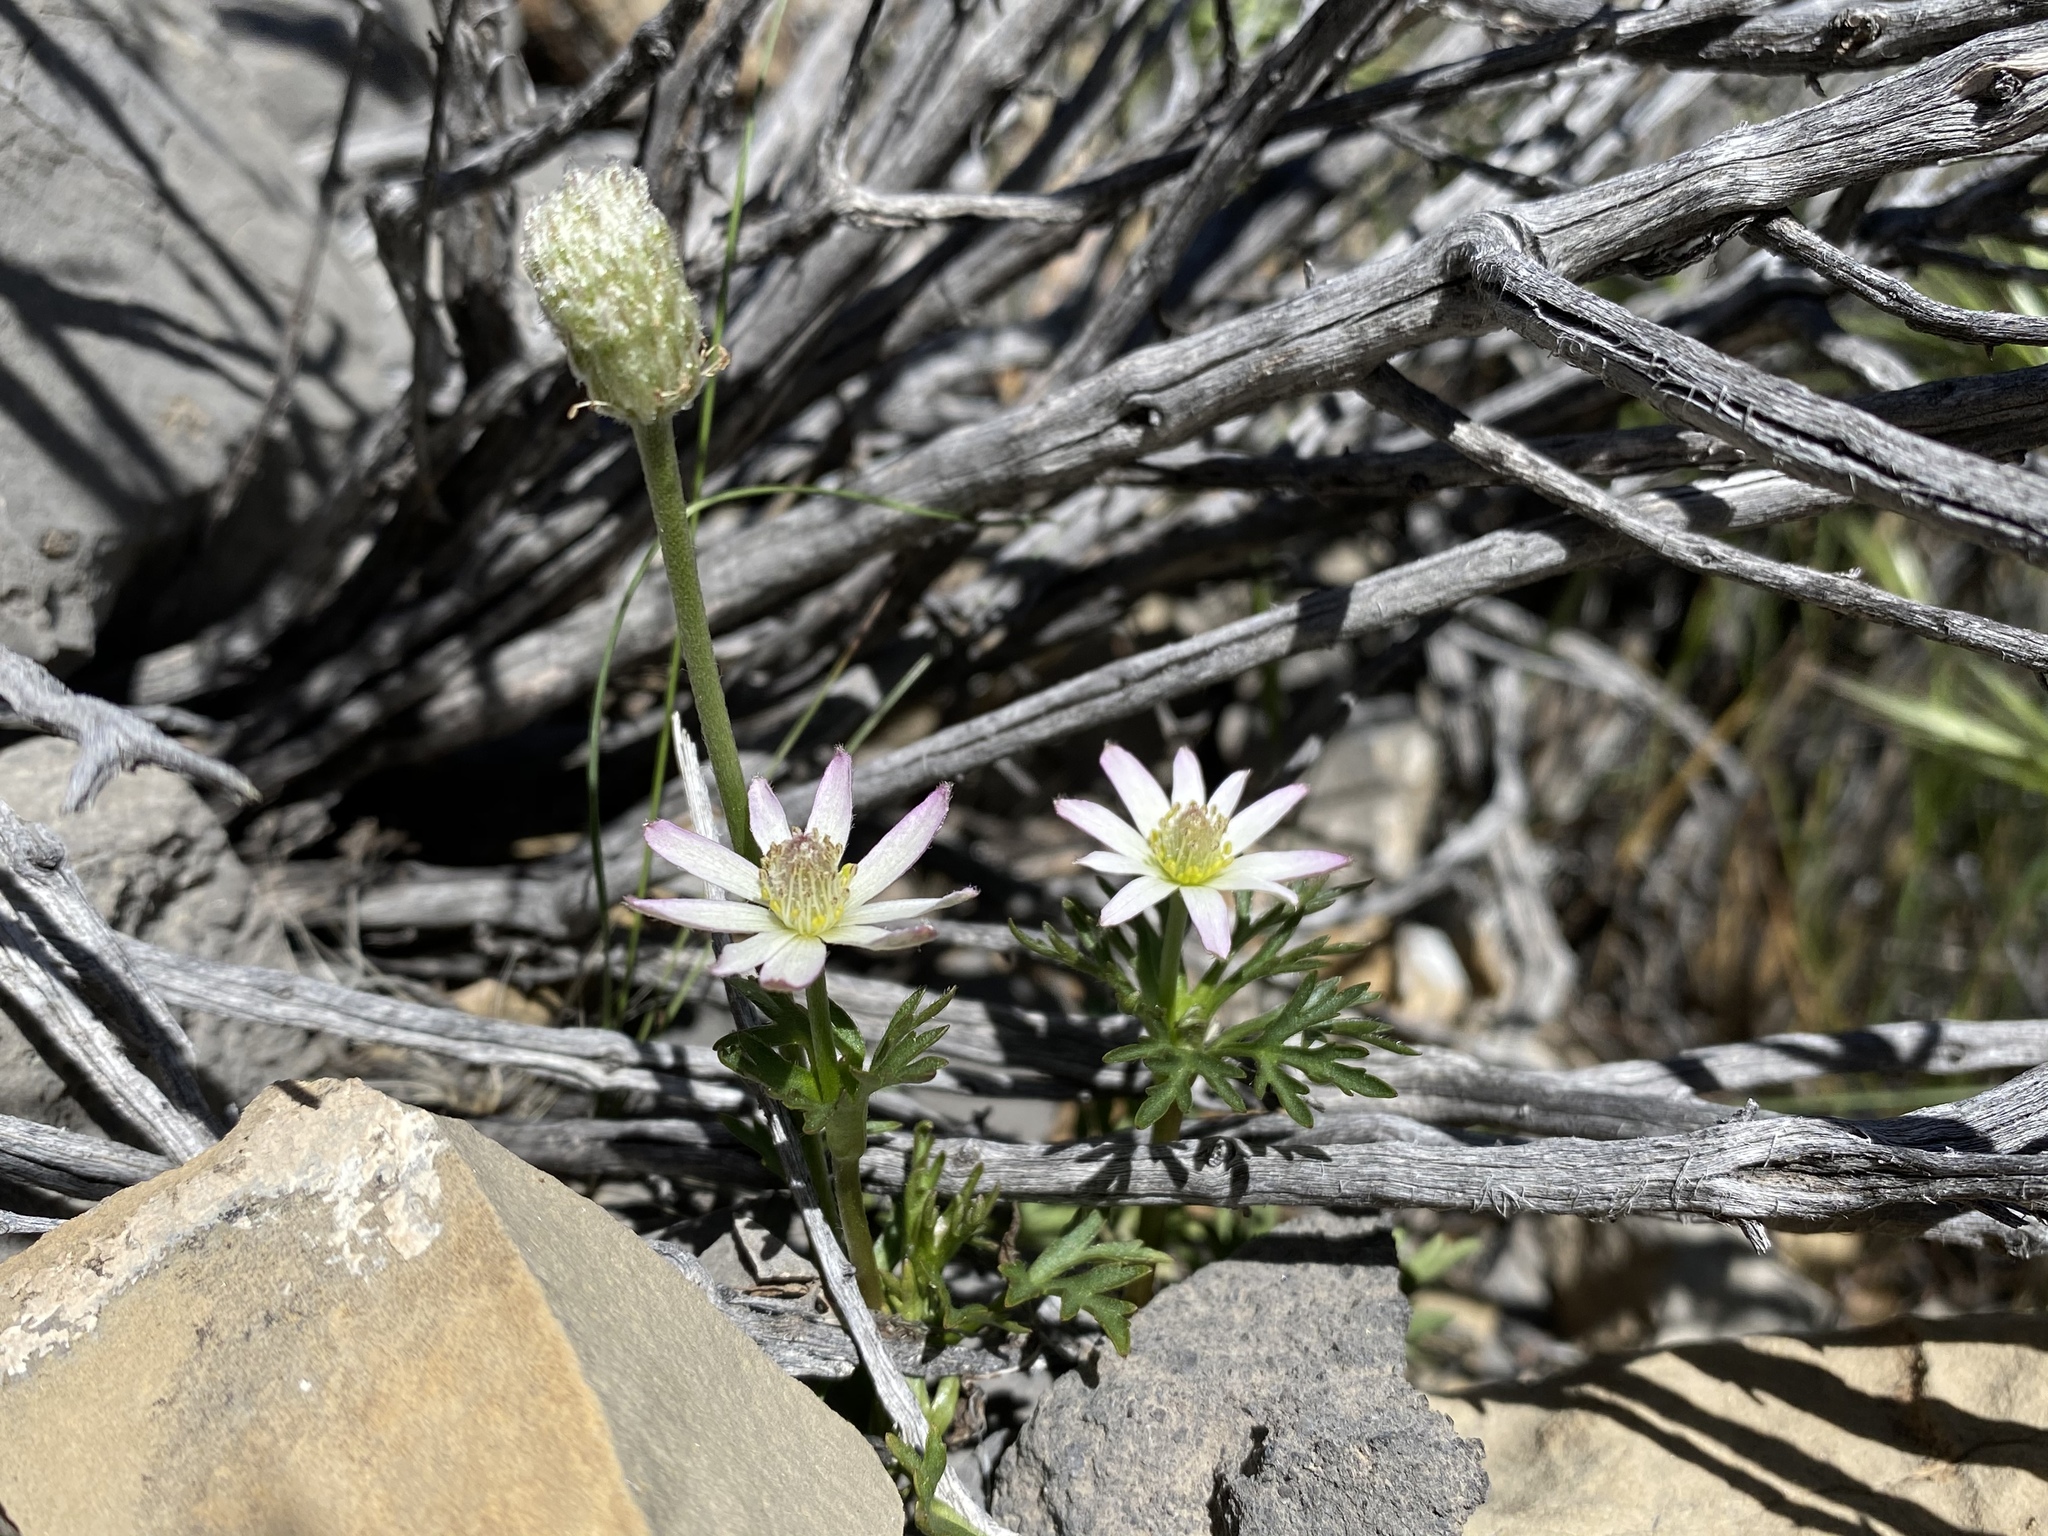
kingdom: Plantae
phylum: Tracheophyta
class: Magnoliopsida
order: Ranunculales
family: Ranunculaceae
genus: Anemone
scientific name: Anemone tuberosa
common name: Desert anemone
